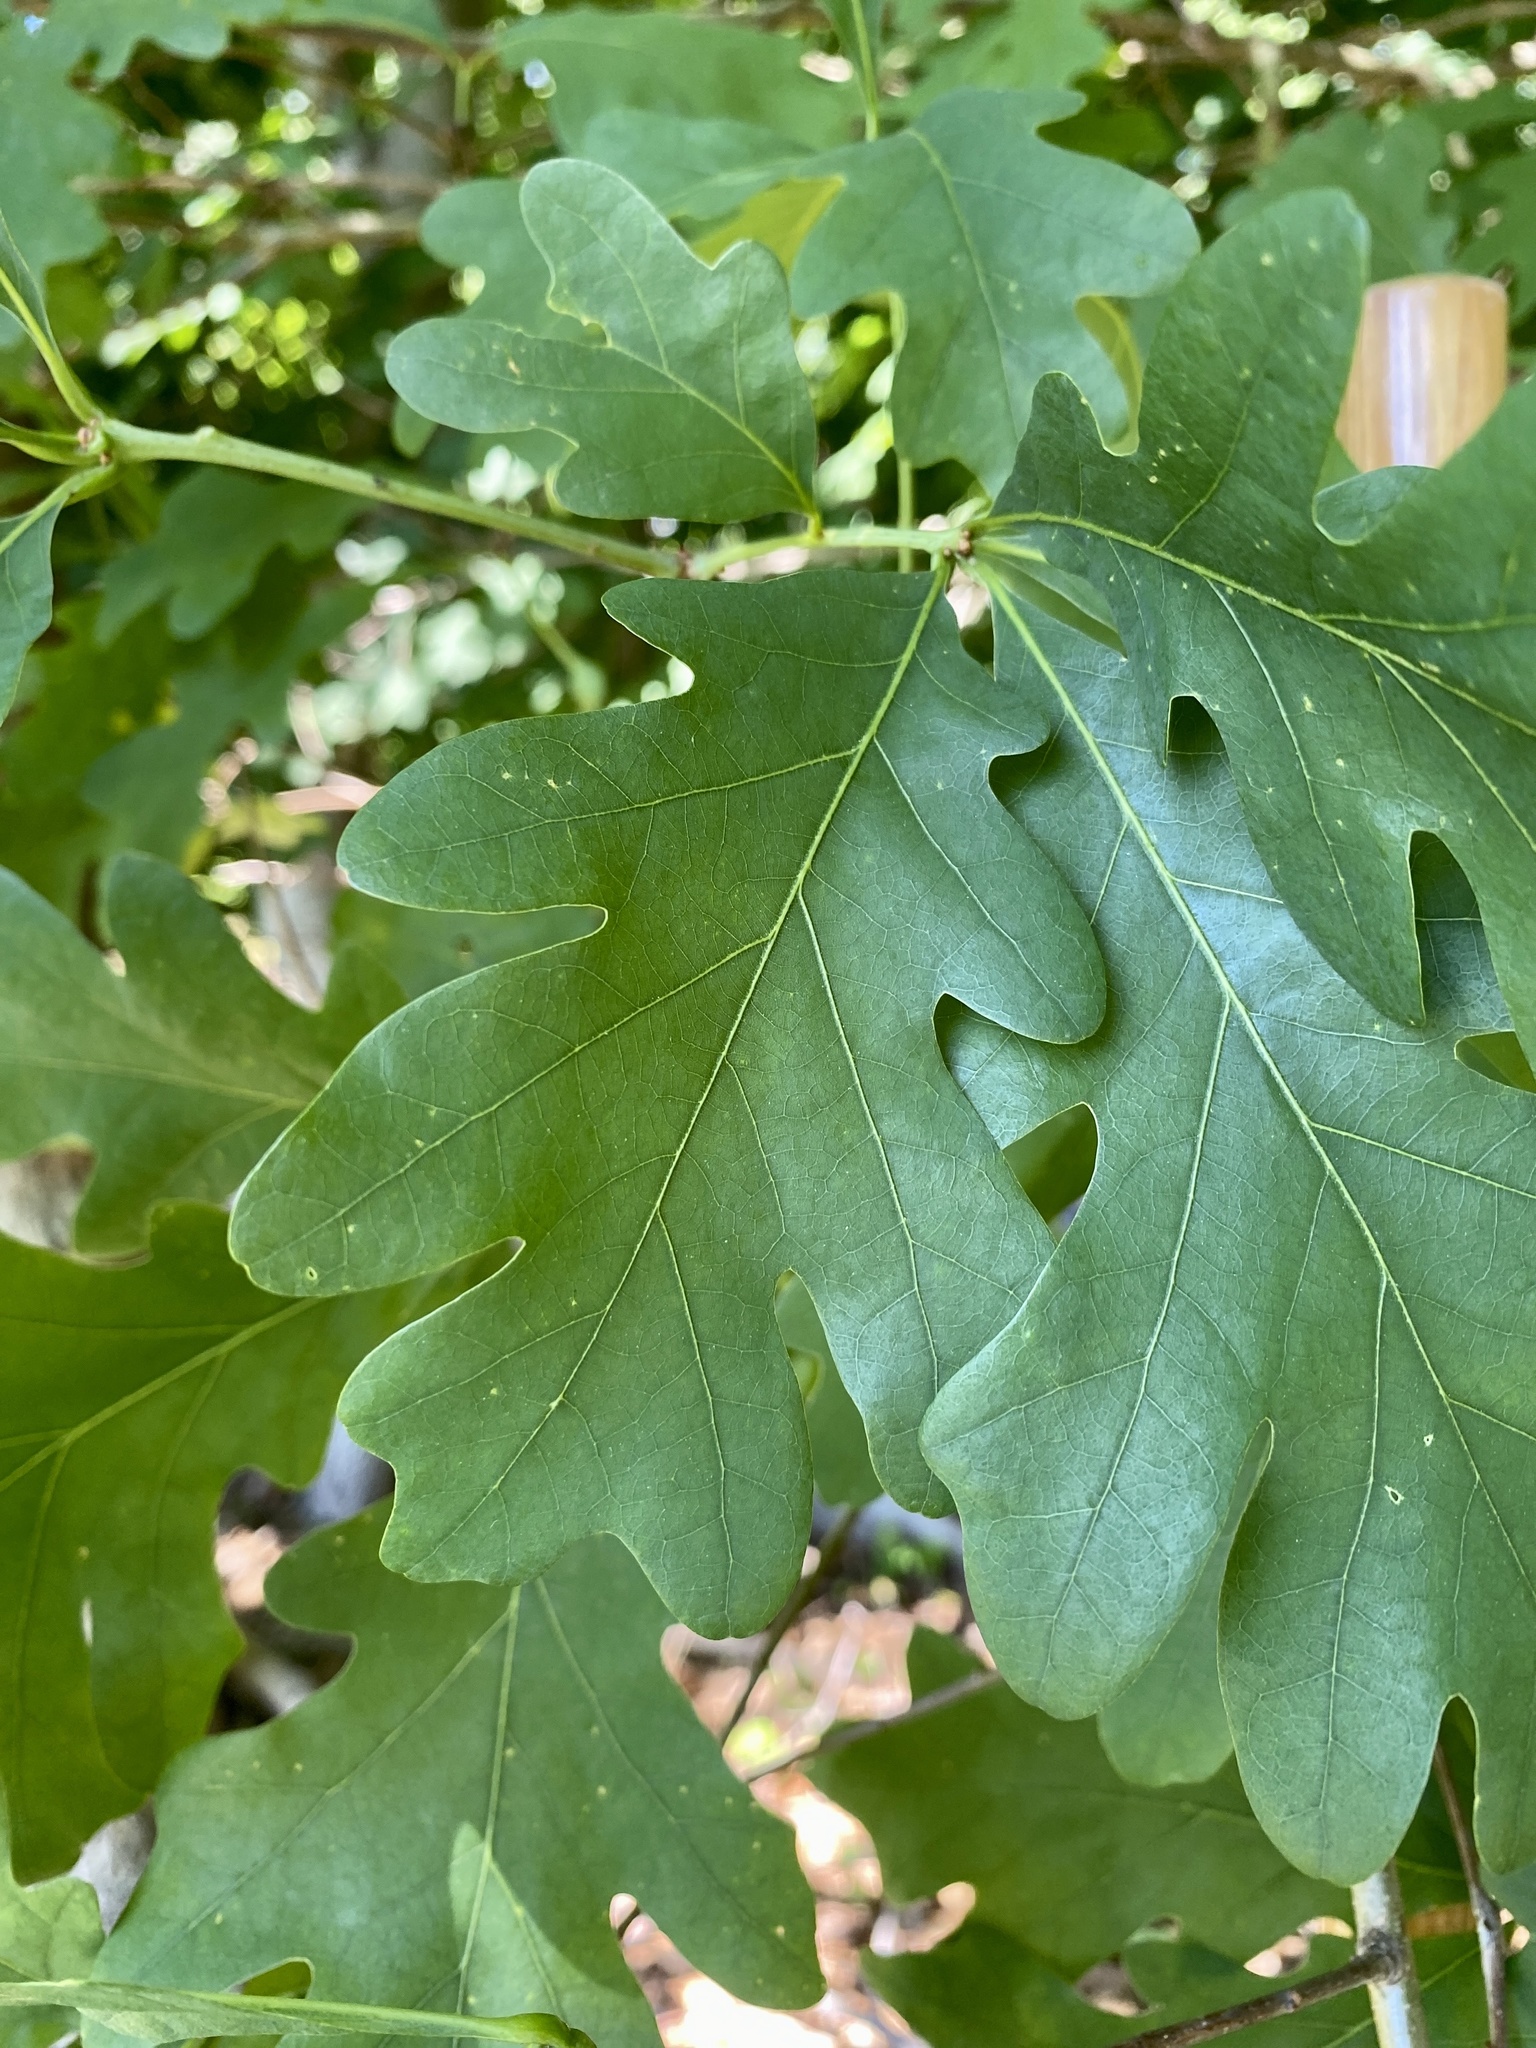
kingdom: Plantae
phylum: Tracheophyta
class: Magnoliopsida
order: Fagales
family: Fagaceae
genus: Quercus
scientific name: Quercus alba
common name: White oak
